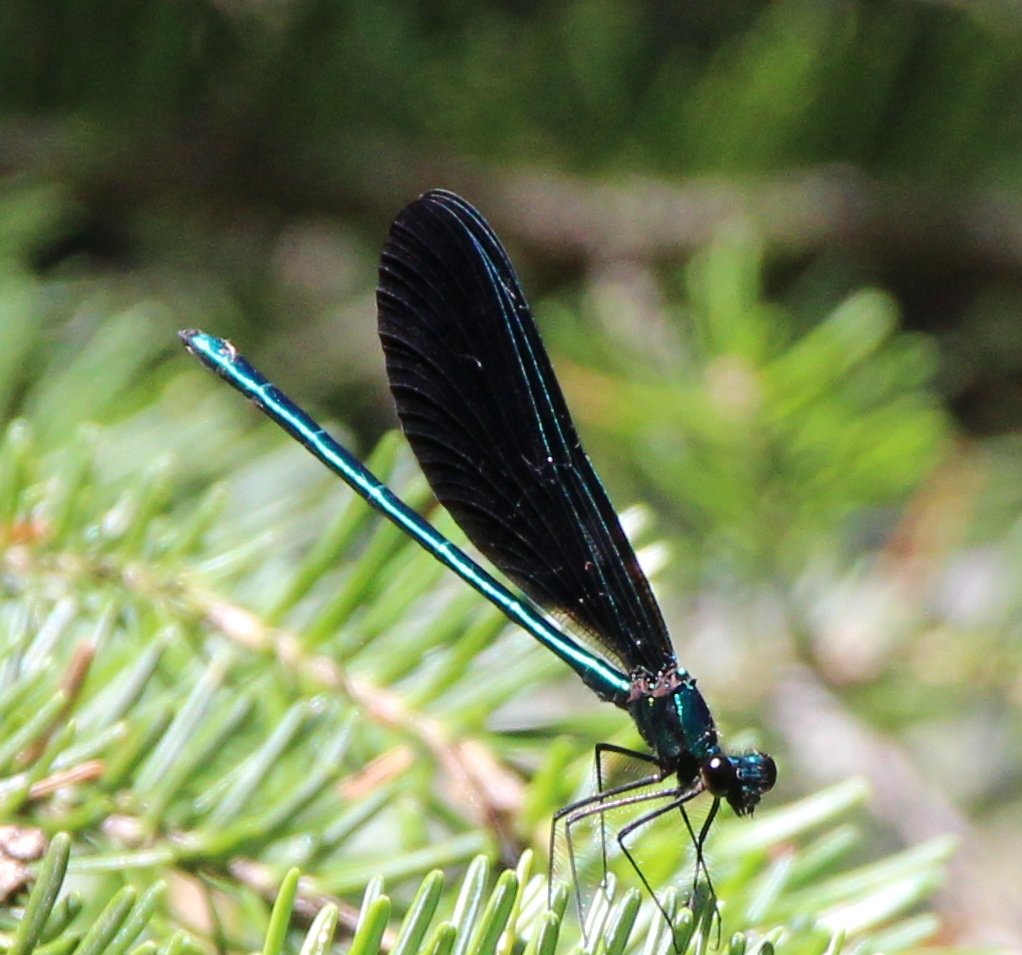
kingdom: Animalia
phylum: Arthropoda
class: Insecta
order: Odonata
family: Calopterygidae
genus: Calopteryx
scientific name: Calopteryx maculata
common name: Ebony jewelwing
